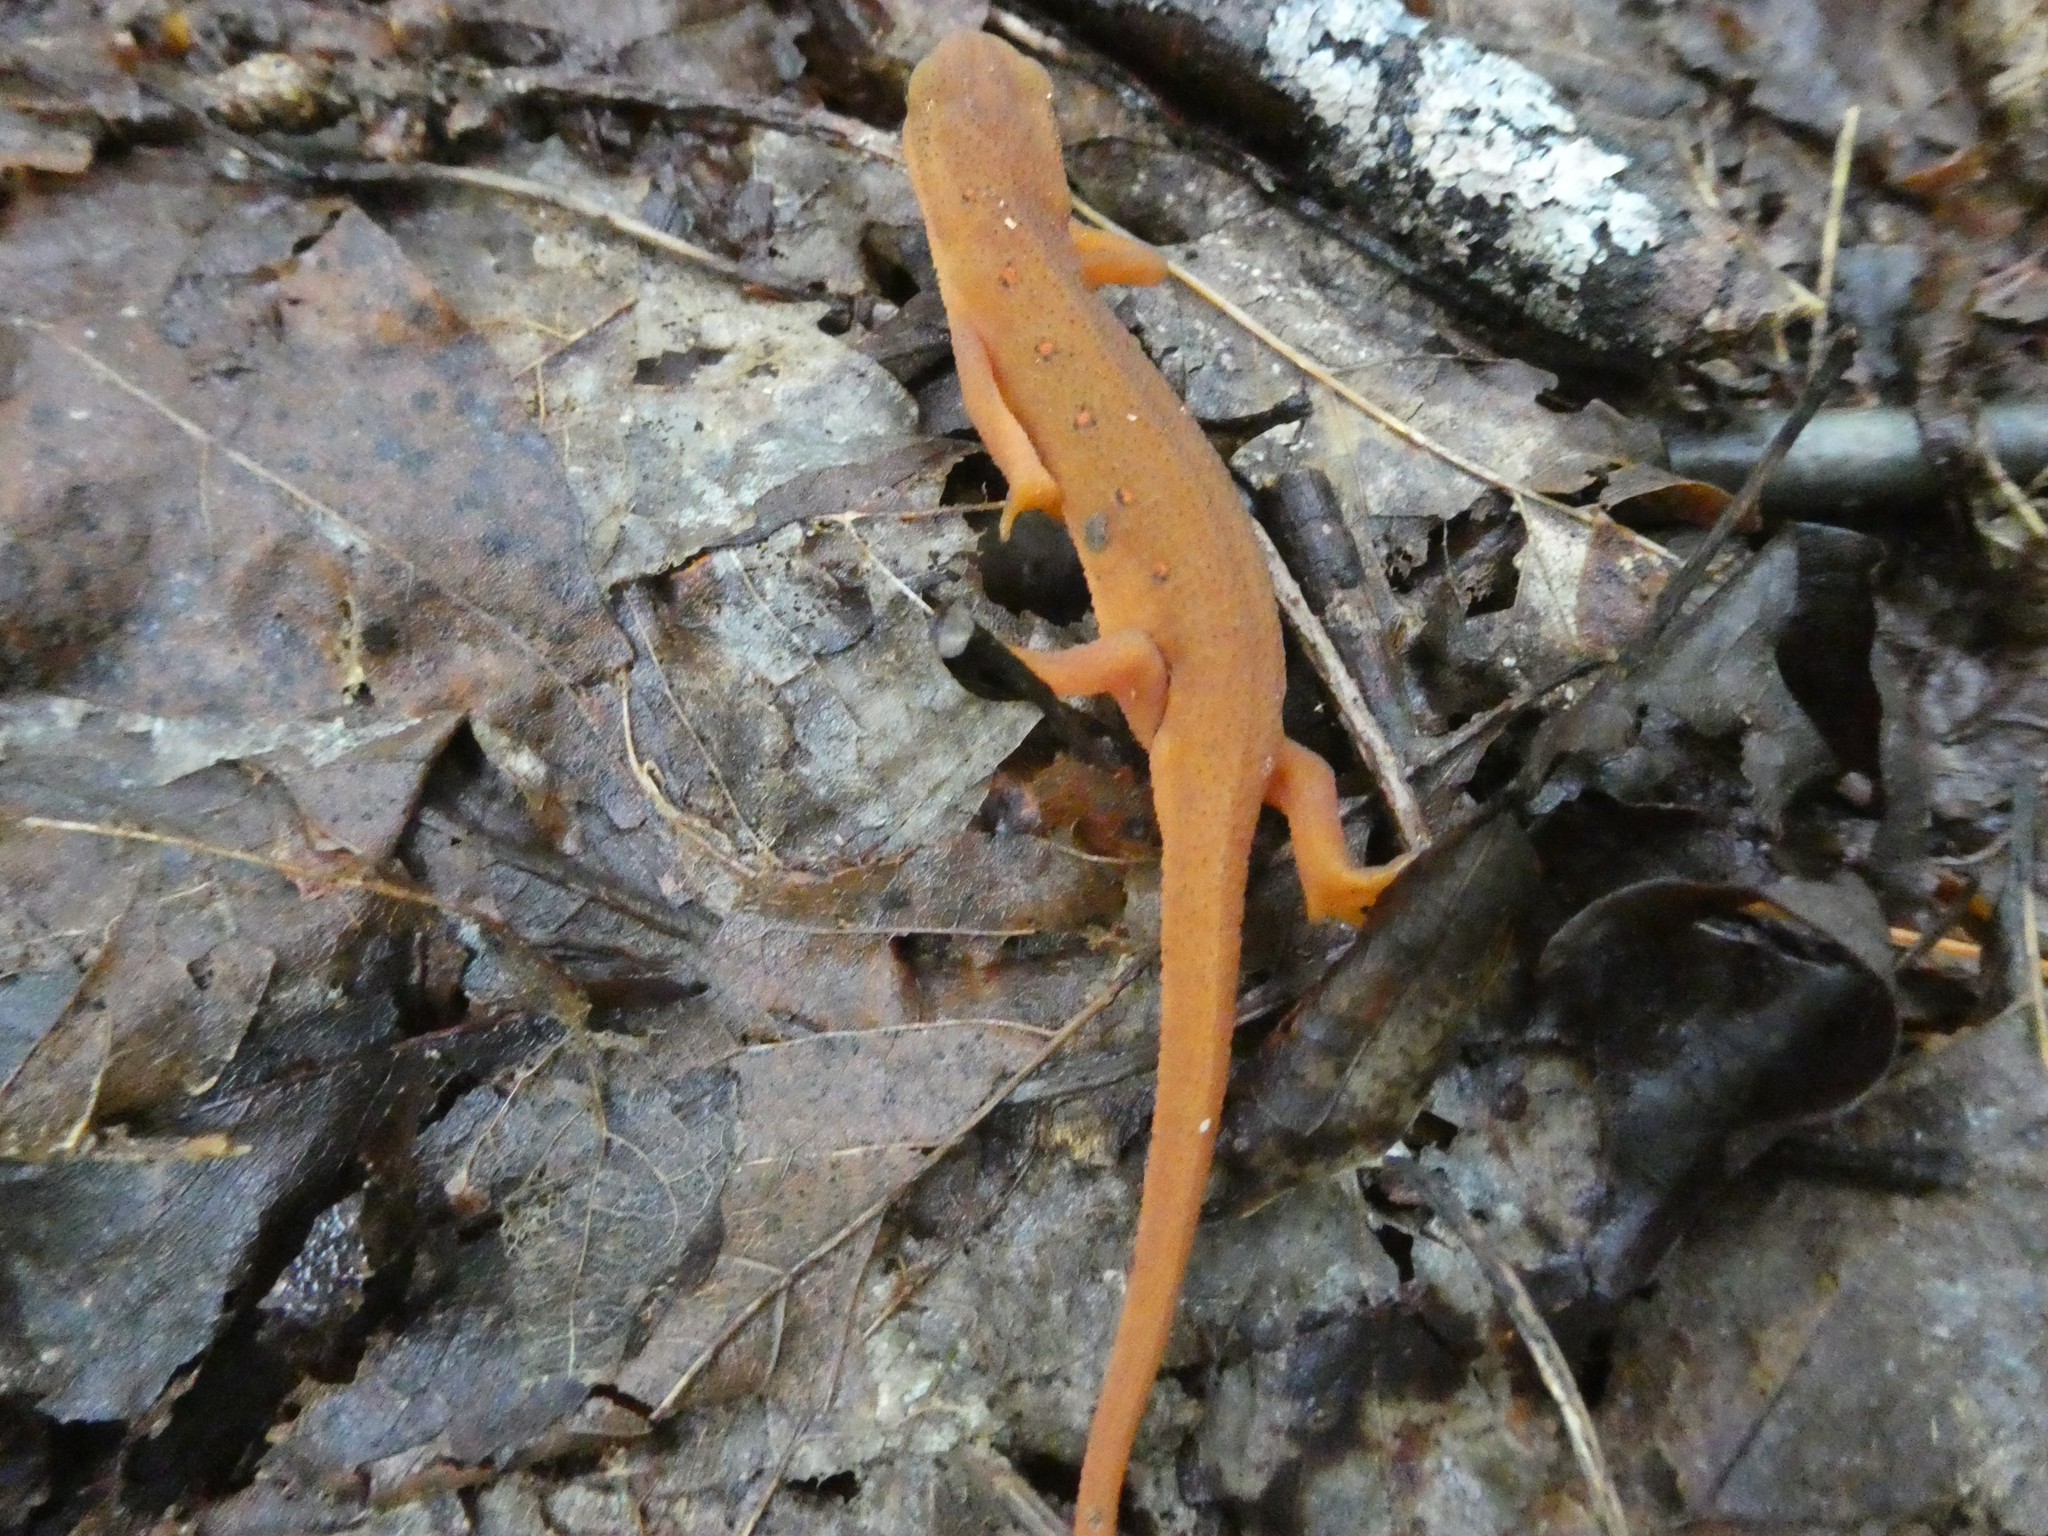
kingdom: Animalia
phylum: Chordata
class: Amphibia
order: Caudata
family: Salamandridae
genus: Notophthalmus
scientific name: Notophthalmus viridescens
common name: Eastern newt
